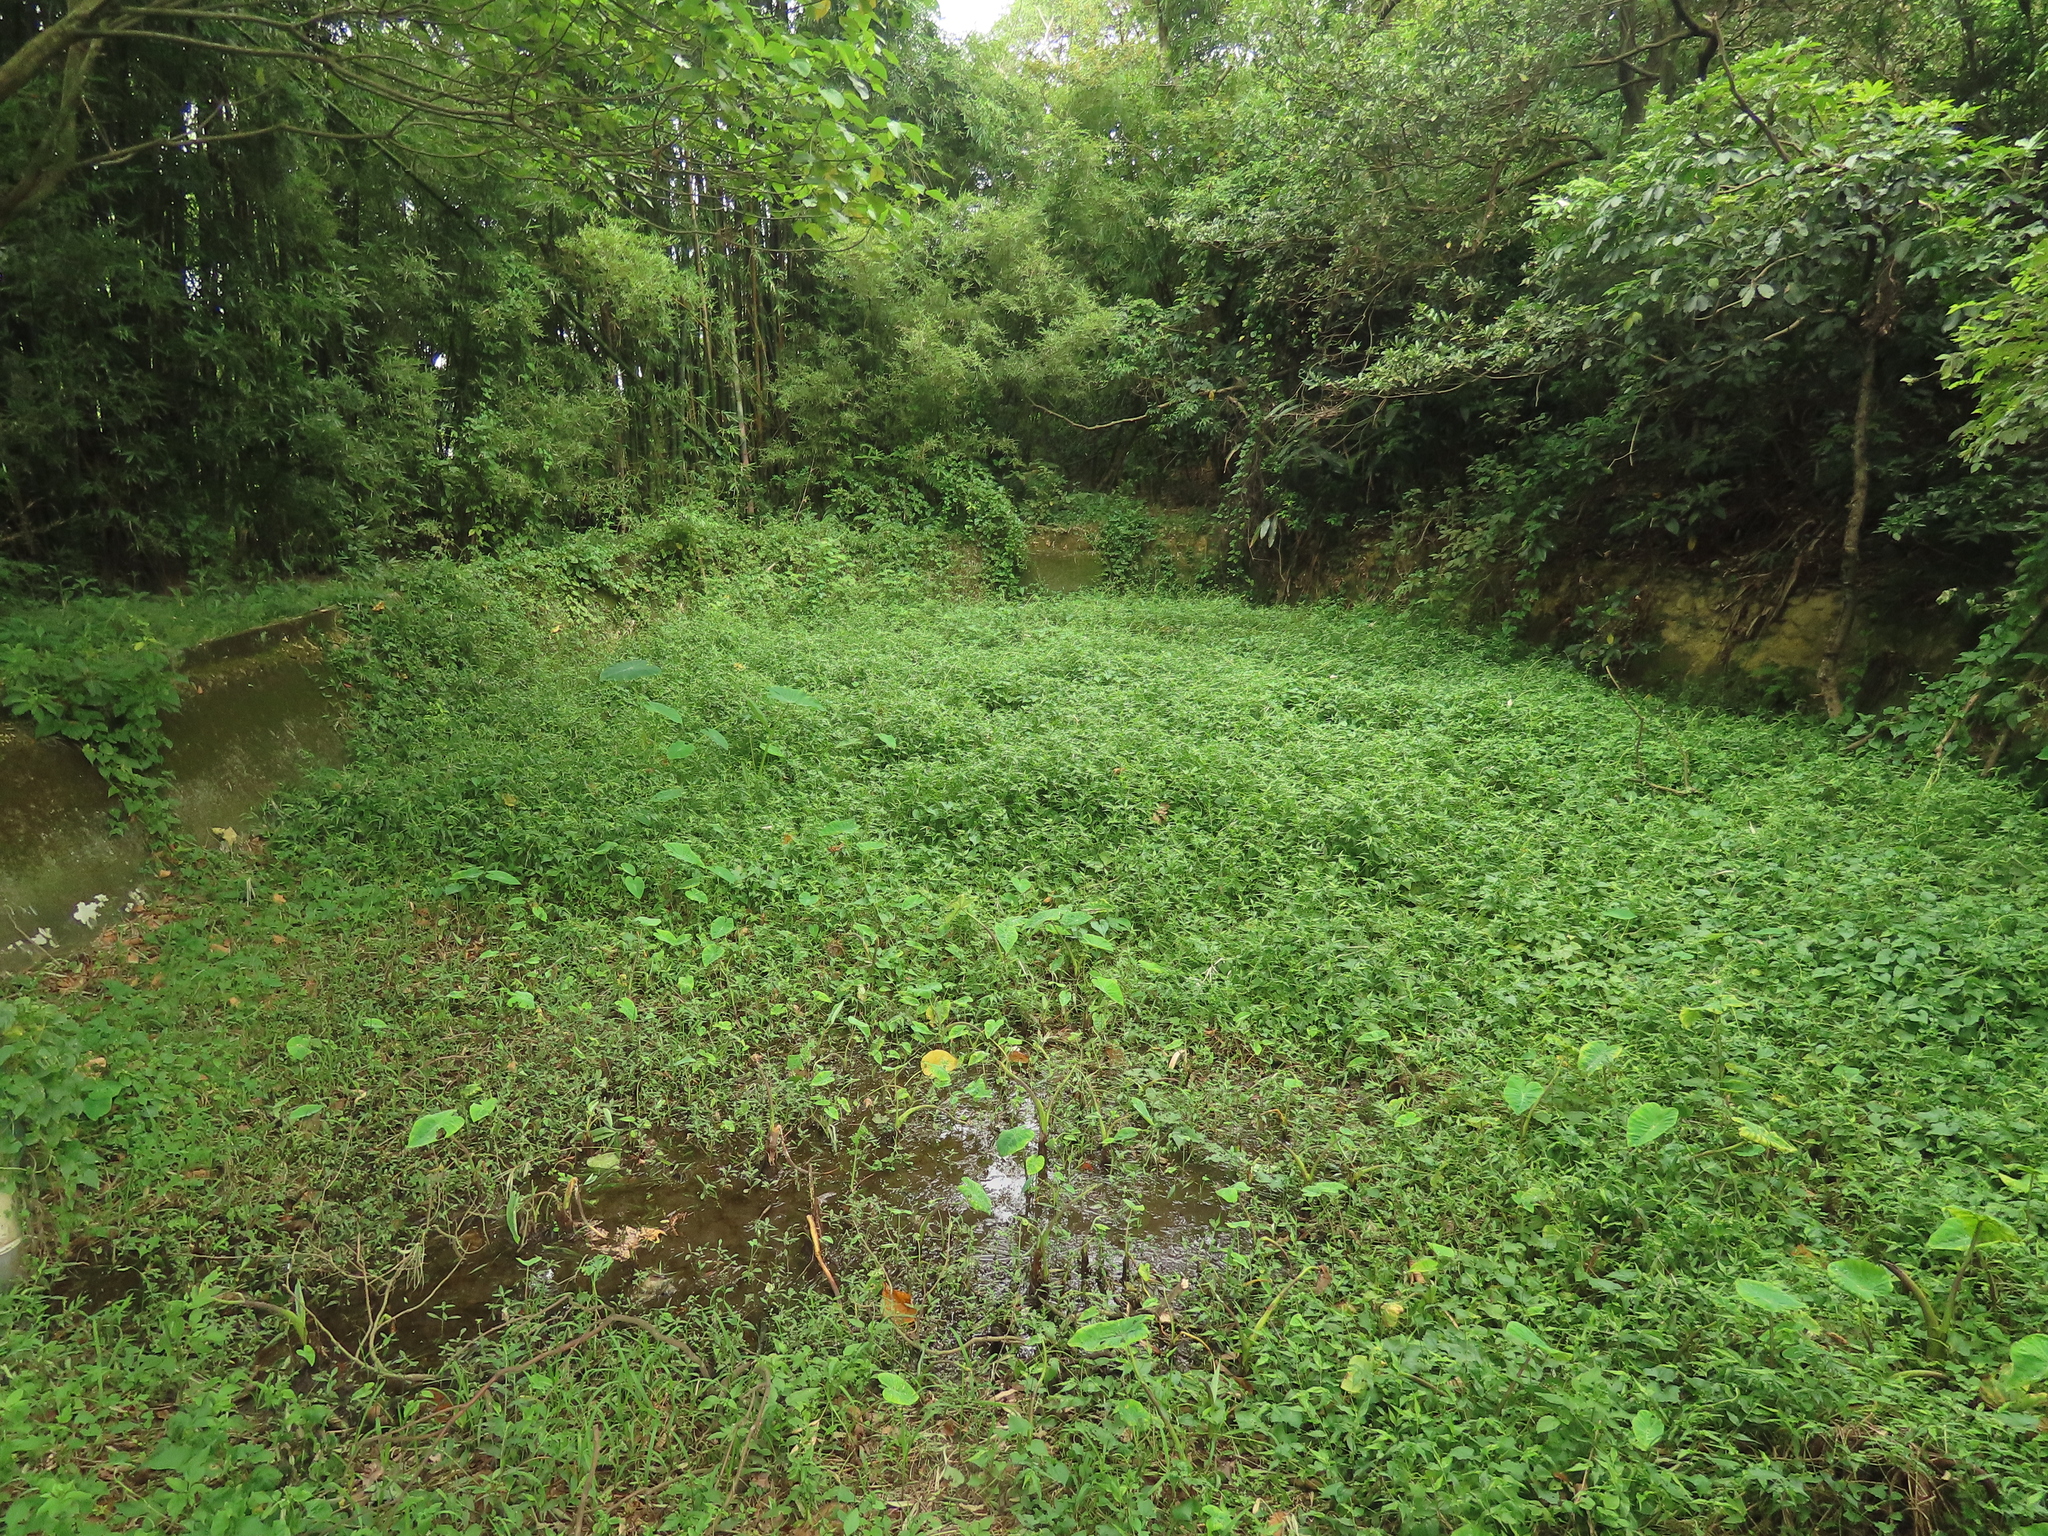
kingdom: Plantae
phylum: Tracheophyta
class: Liliopsida
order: Alismatales
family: Araceae
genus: Colocasia
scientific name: Colocasia esculenta
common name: Taro
